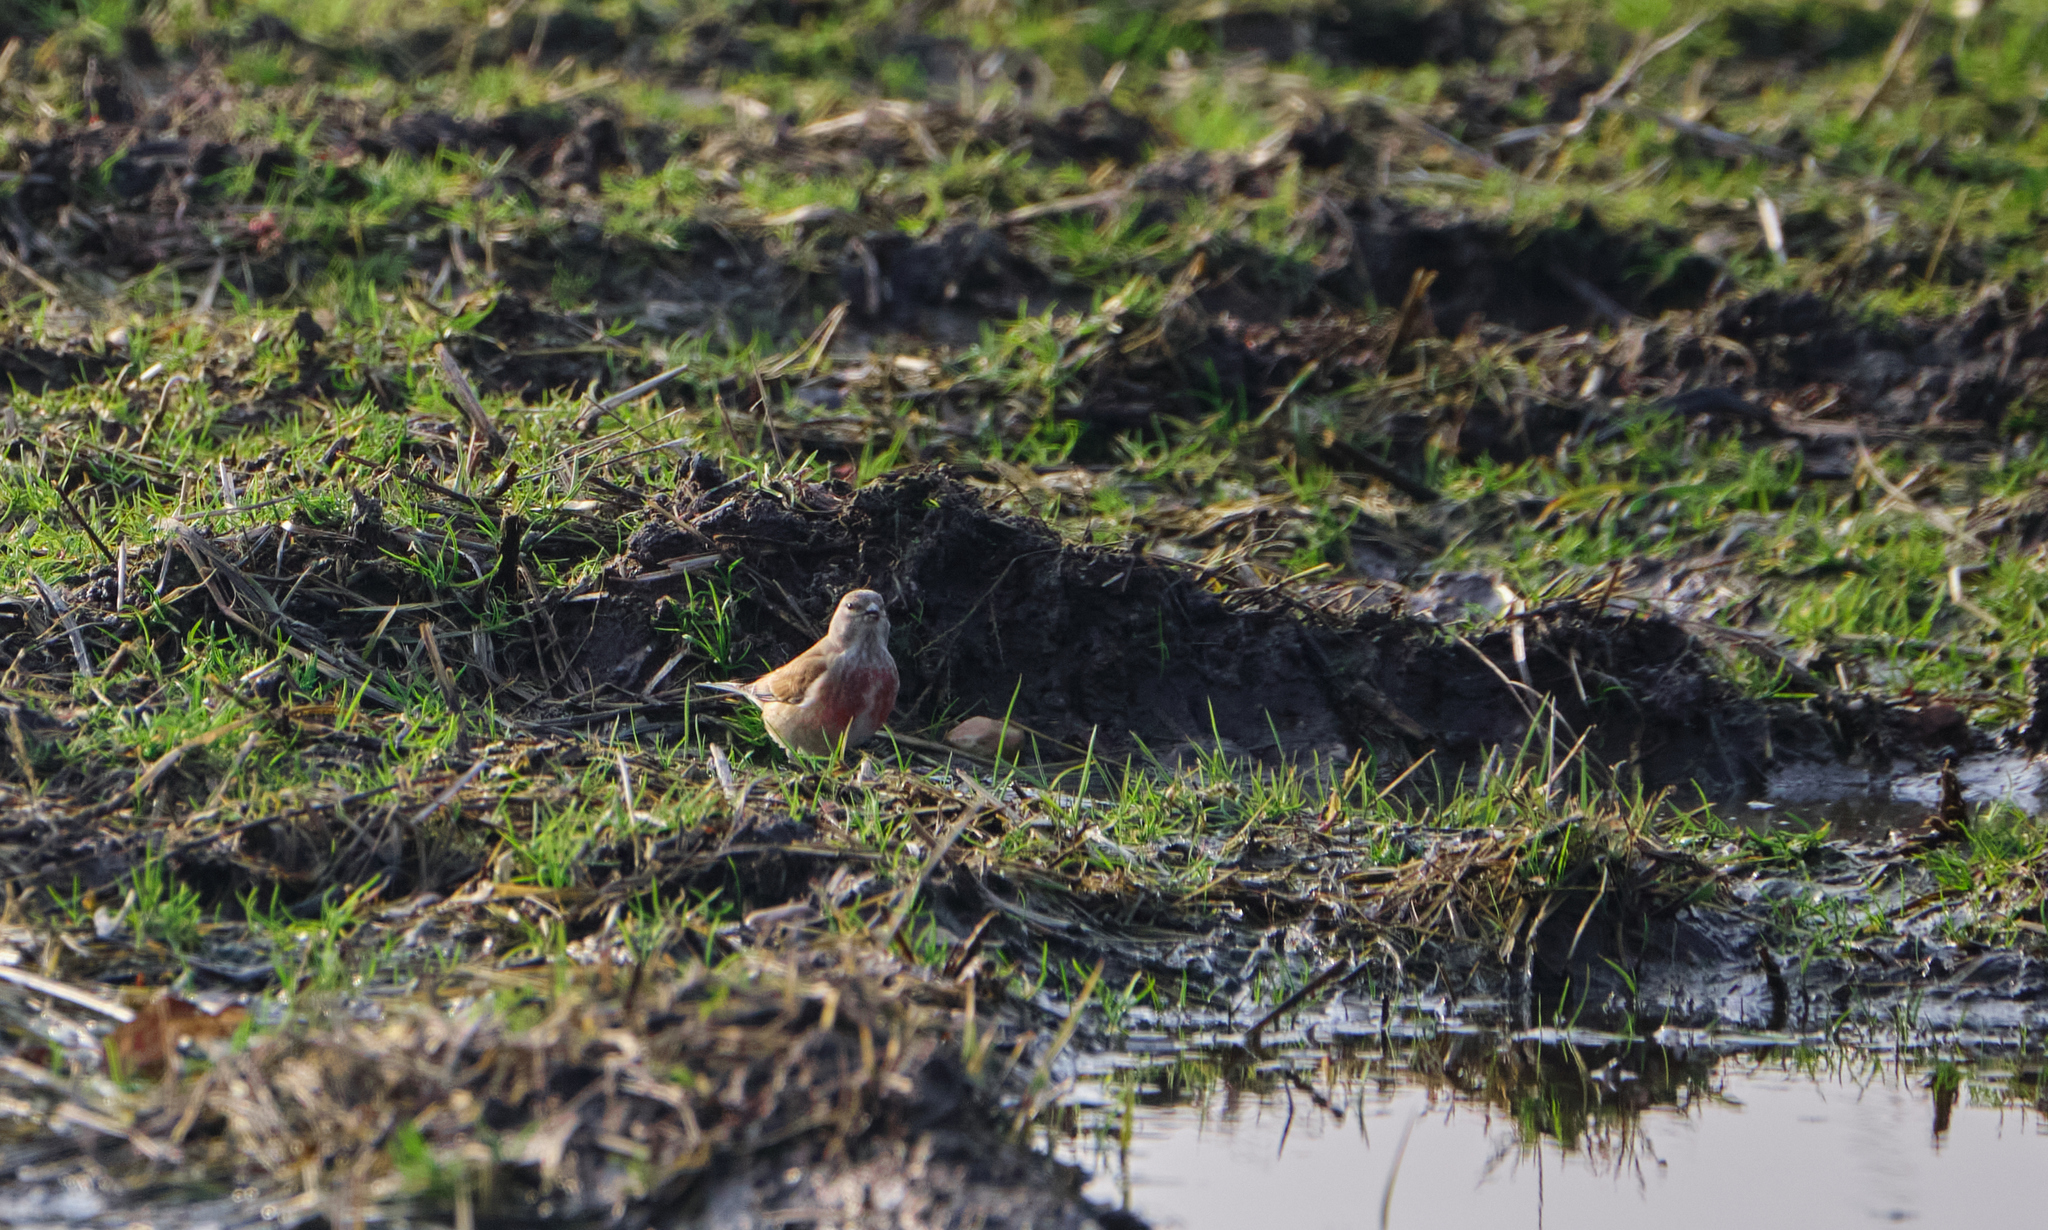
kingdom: Animalia
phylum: Chordata
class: Aves
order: Passeriformes
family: Fringillidae
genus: Linaria
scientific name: Linaria cannabina
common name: Common linnet
